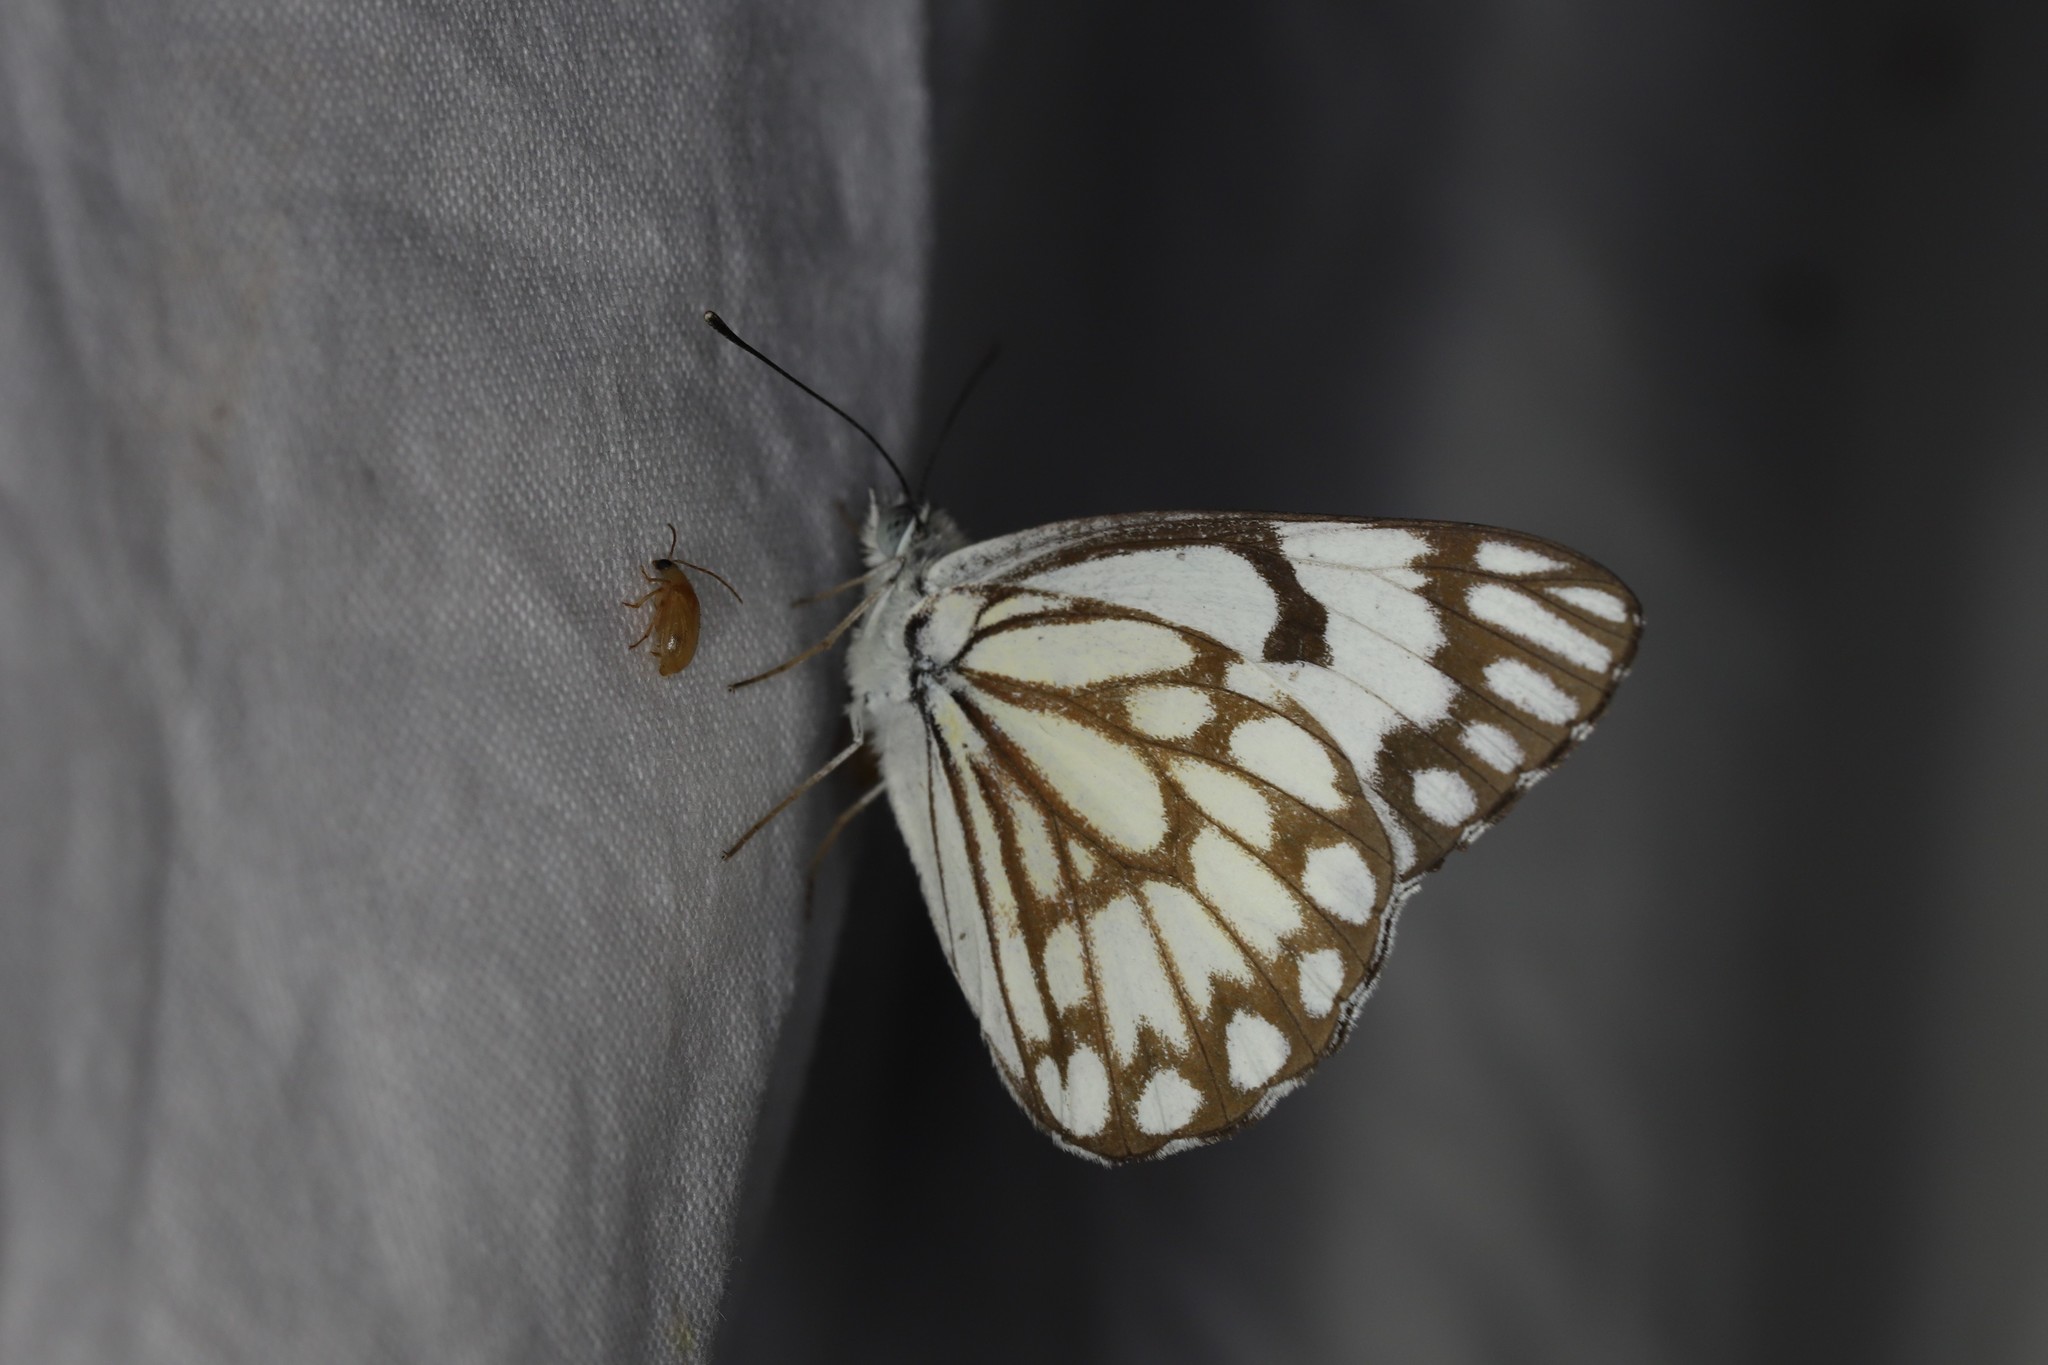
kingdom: Animalia
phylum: Arthropoda
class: Insecta
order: Lepidoptera
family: Pieridae
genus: Belenois
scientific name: Belenois aurota
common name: Brown-veined white
